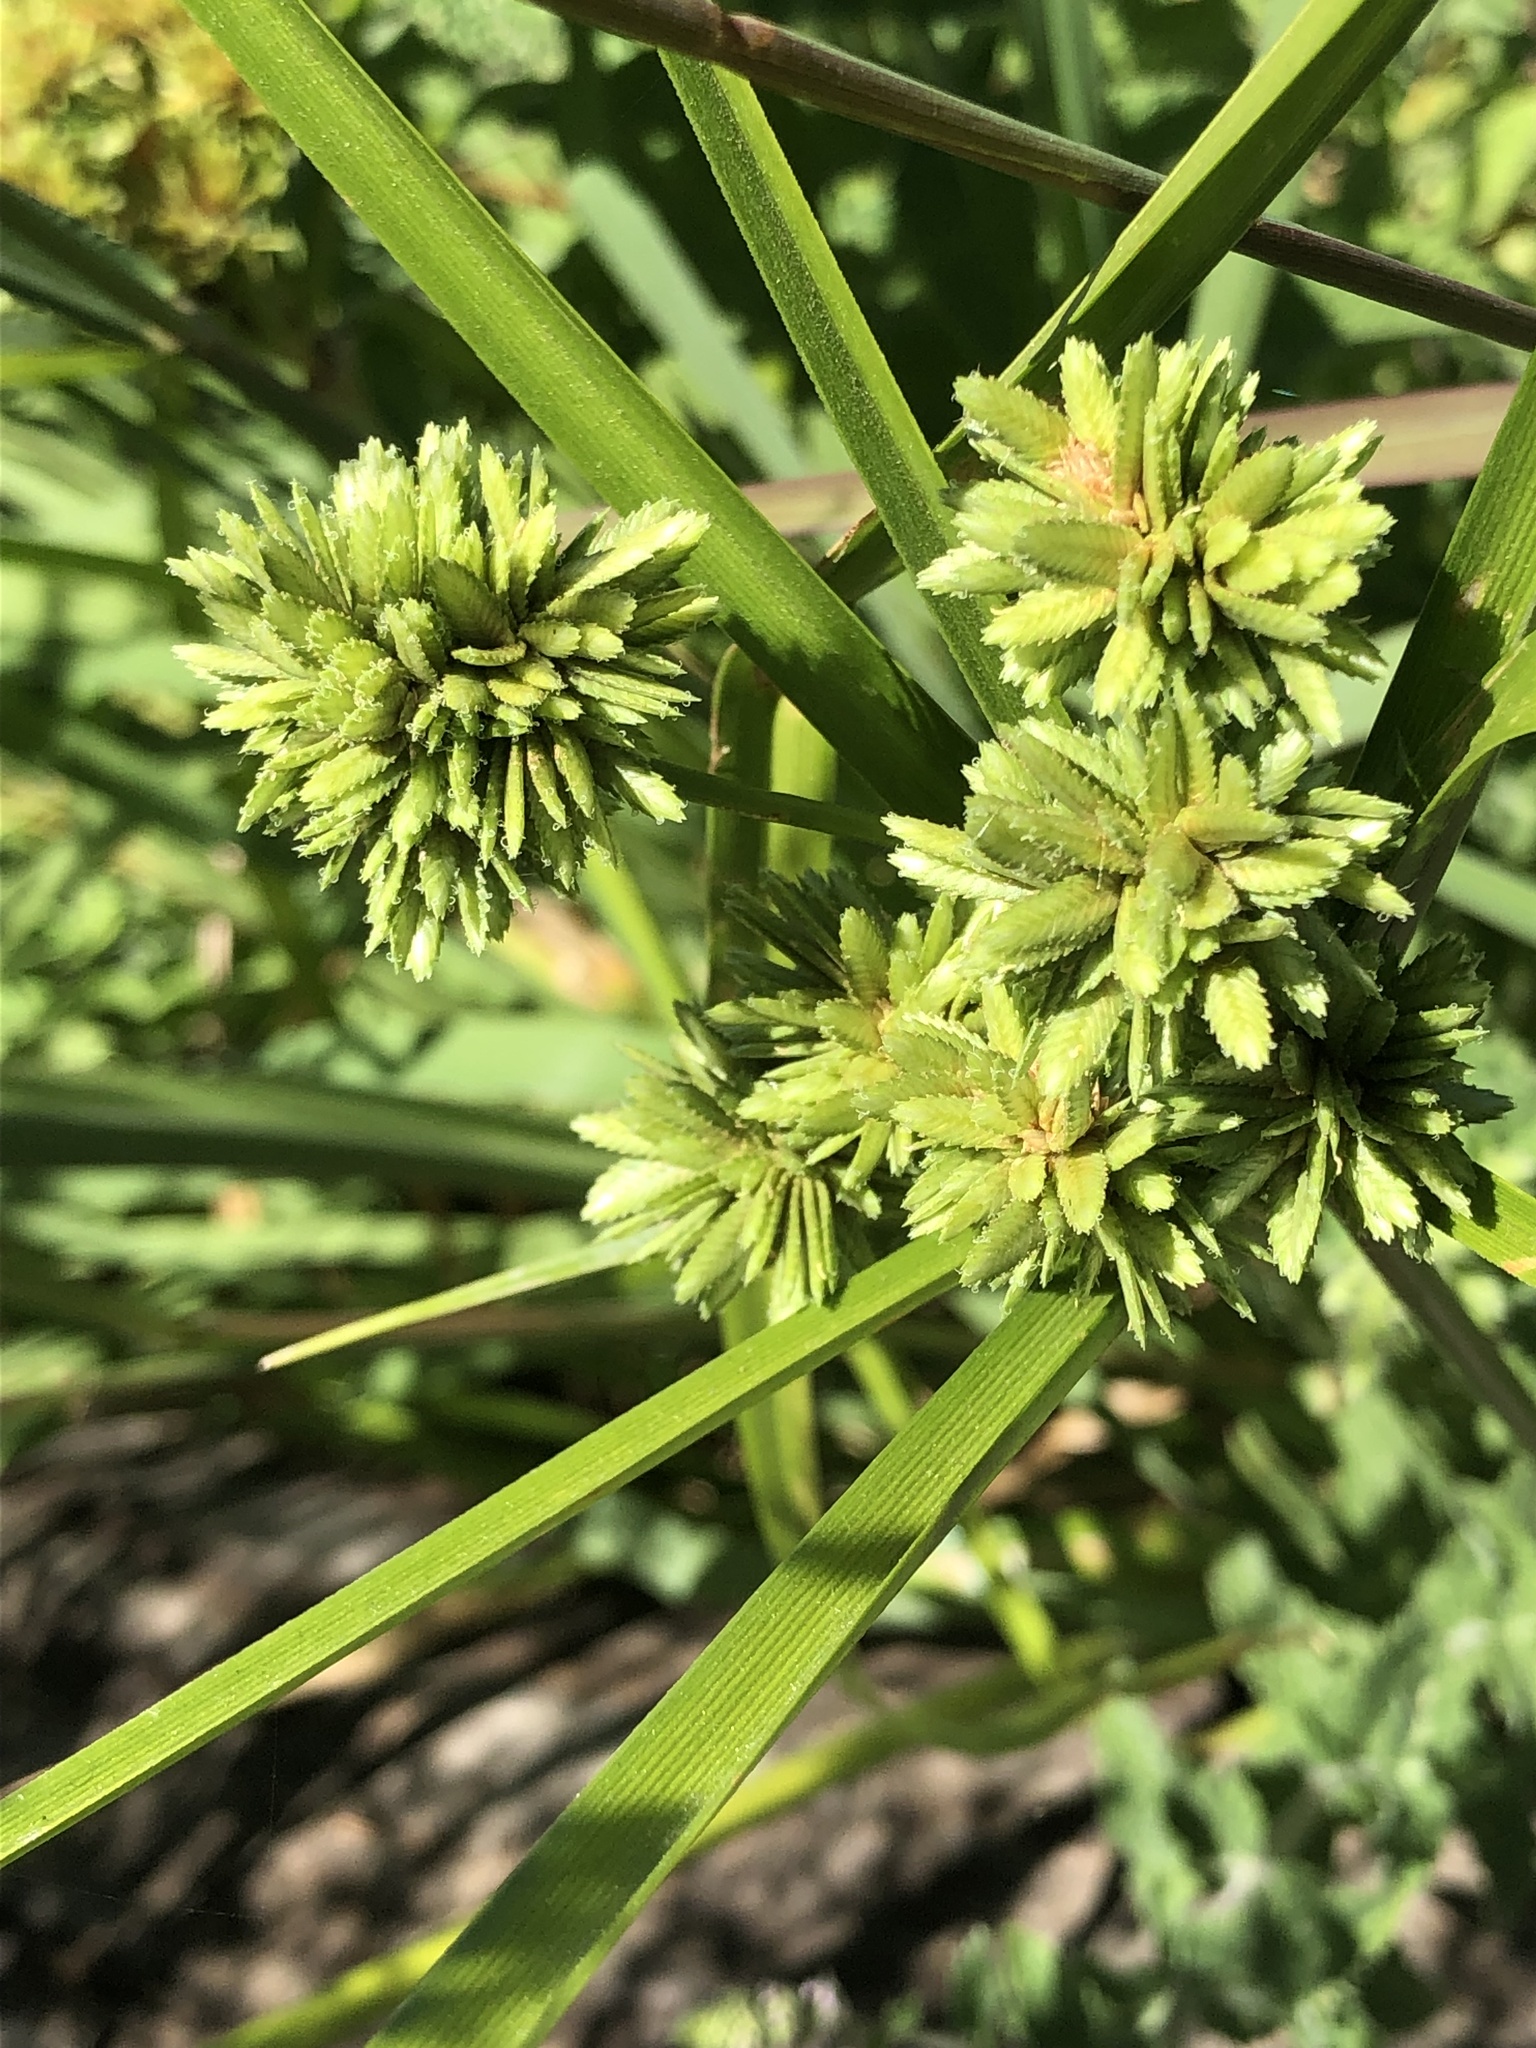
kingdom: Plantae
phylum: Tracheophyta
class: Liliopsida
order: Poales
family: Cyperaceae
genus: Cyperus
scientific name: Cyperus eragrostis
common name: Tall flatsedge
